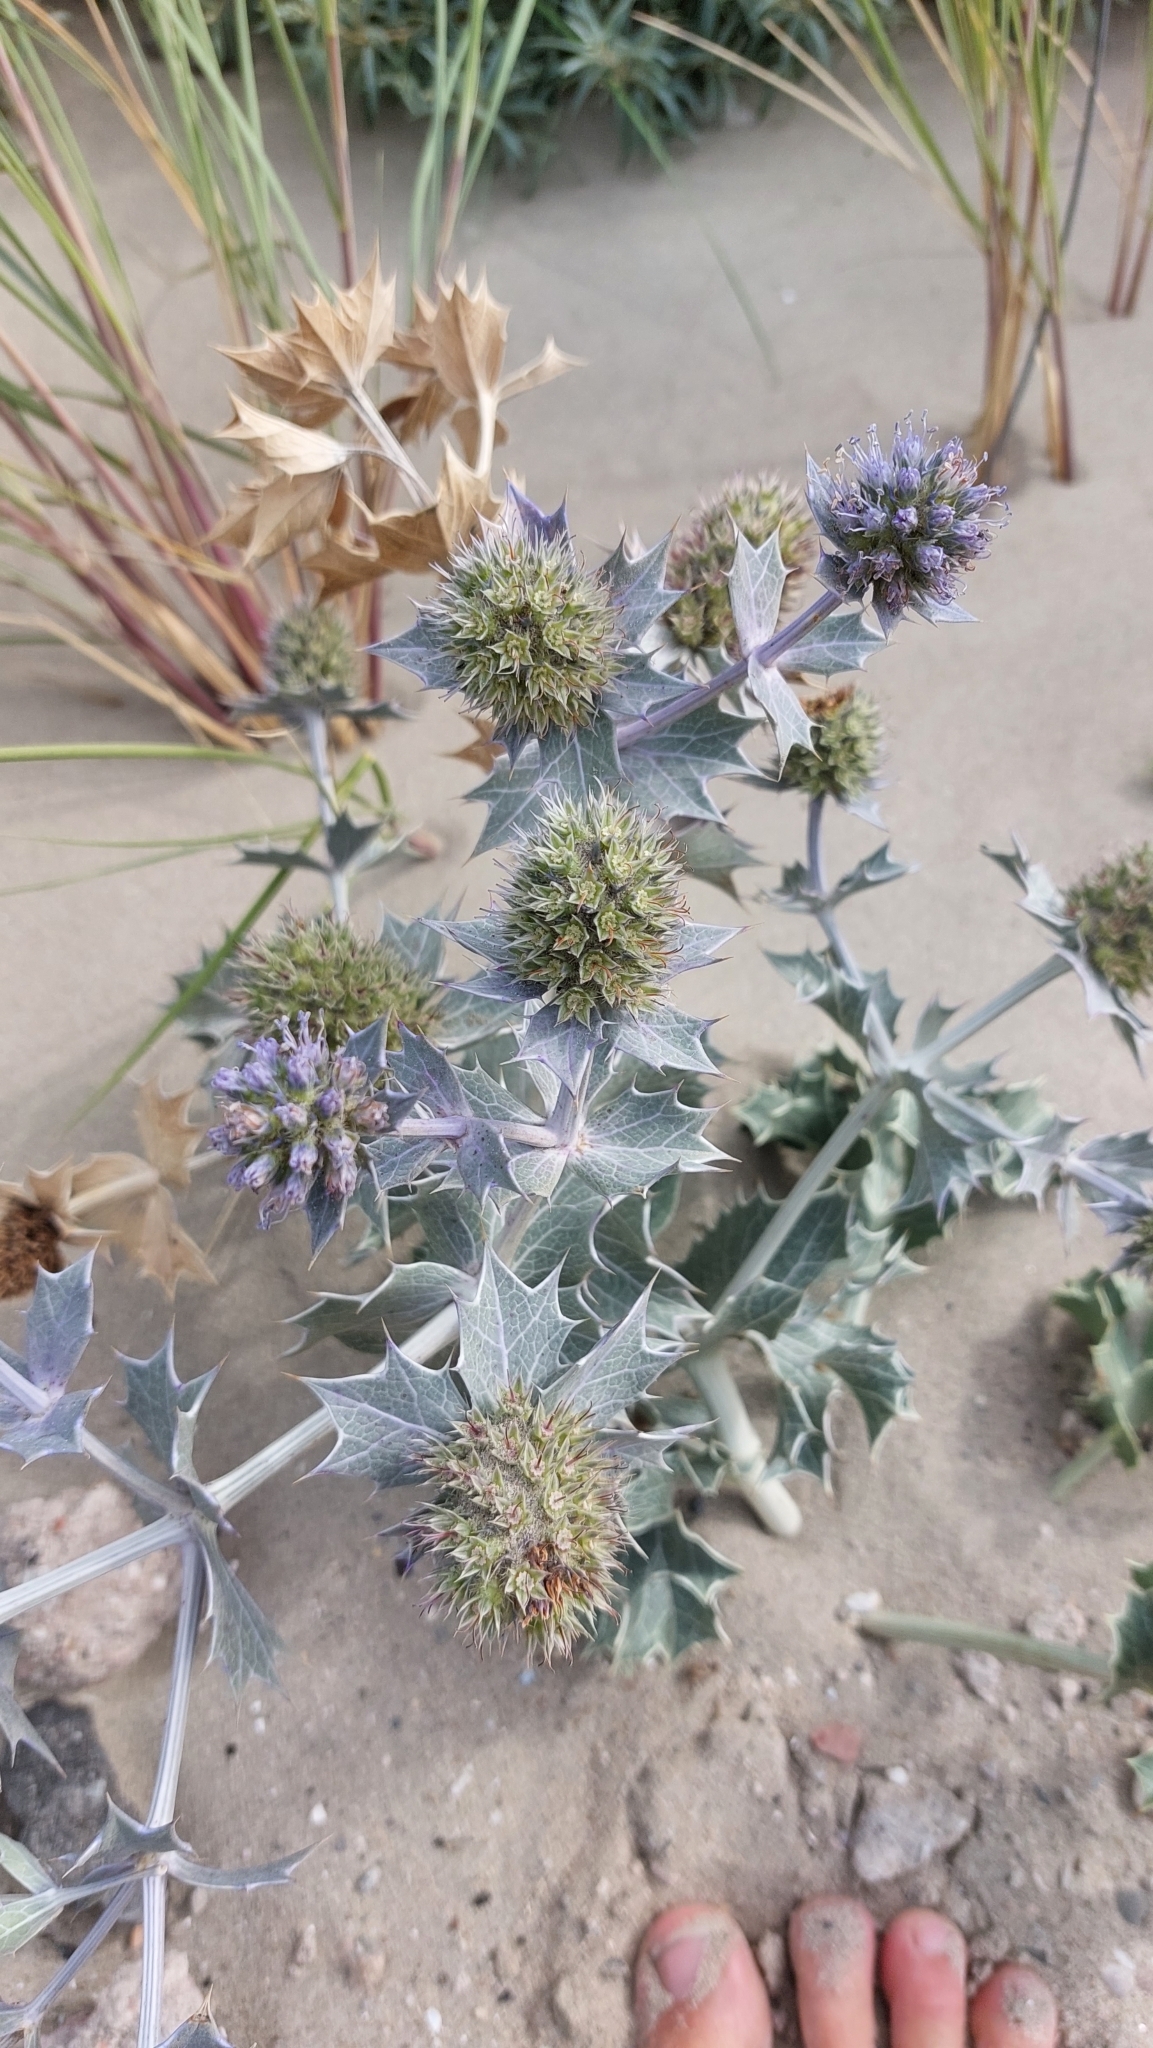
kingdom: Plantae
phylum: Tracheophyta
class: Magnoliopsida
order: Apiales
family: Apiaceae
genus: Eryngium
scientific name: Eryngium maritimum
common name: Sea-holly
